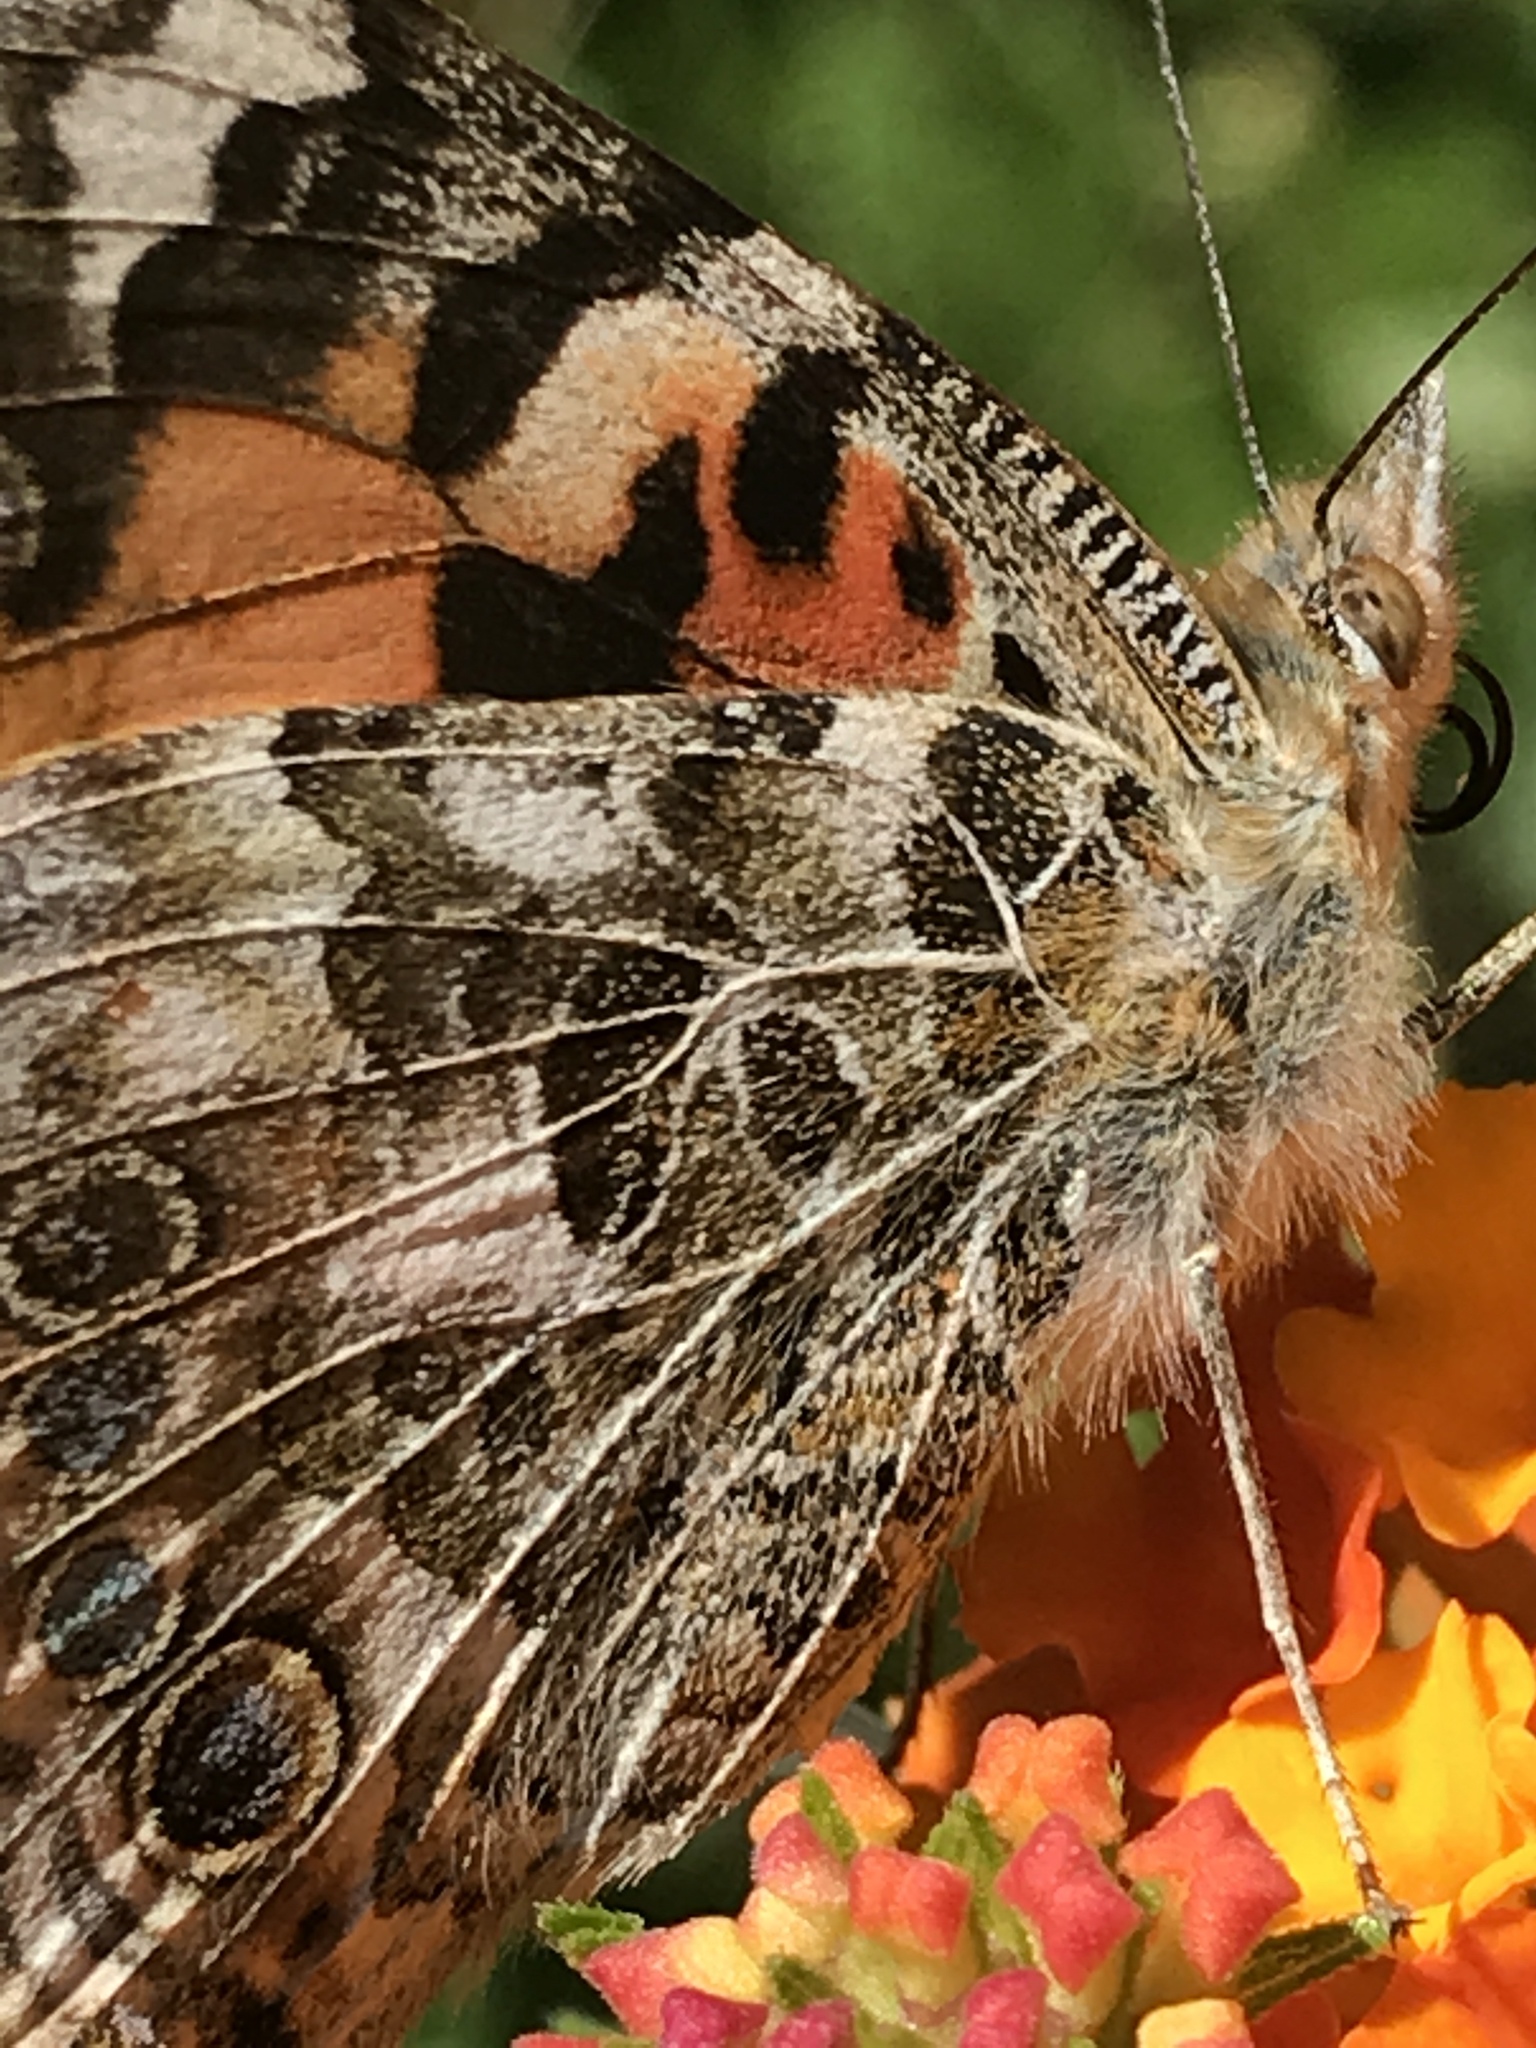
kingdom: Animalia
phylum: Arthropoda
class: Insecta
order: Lepidoptera
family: Nymphalidae
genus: Vanessa
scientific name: Vanessa cardui
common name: Painted lady
